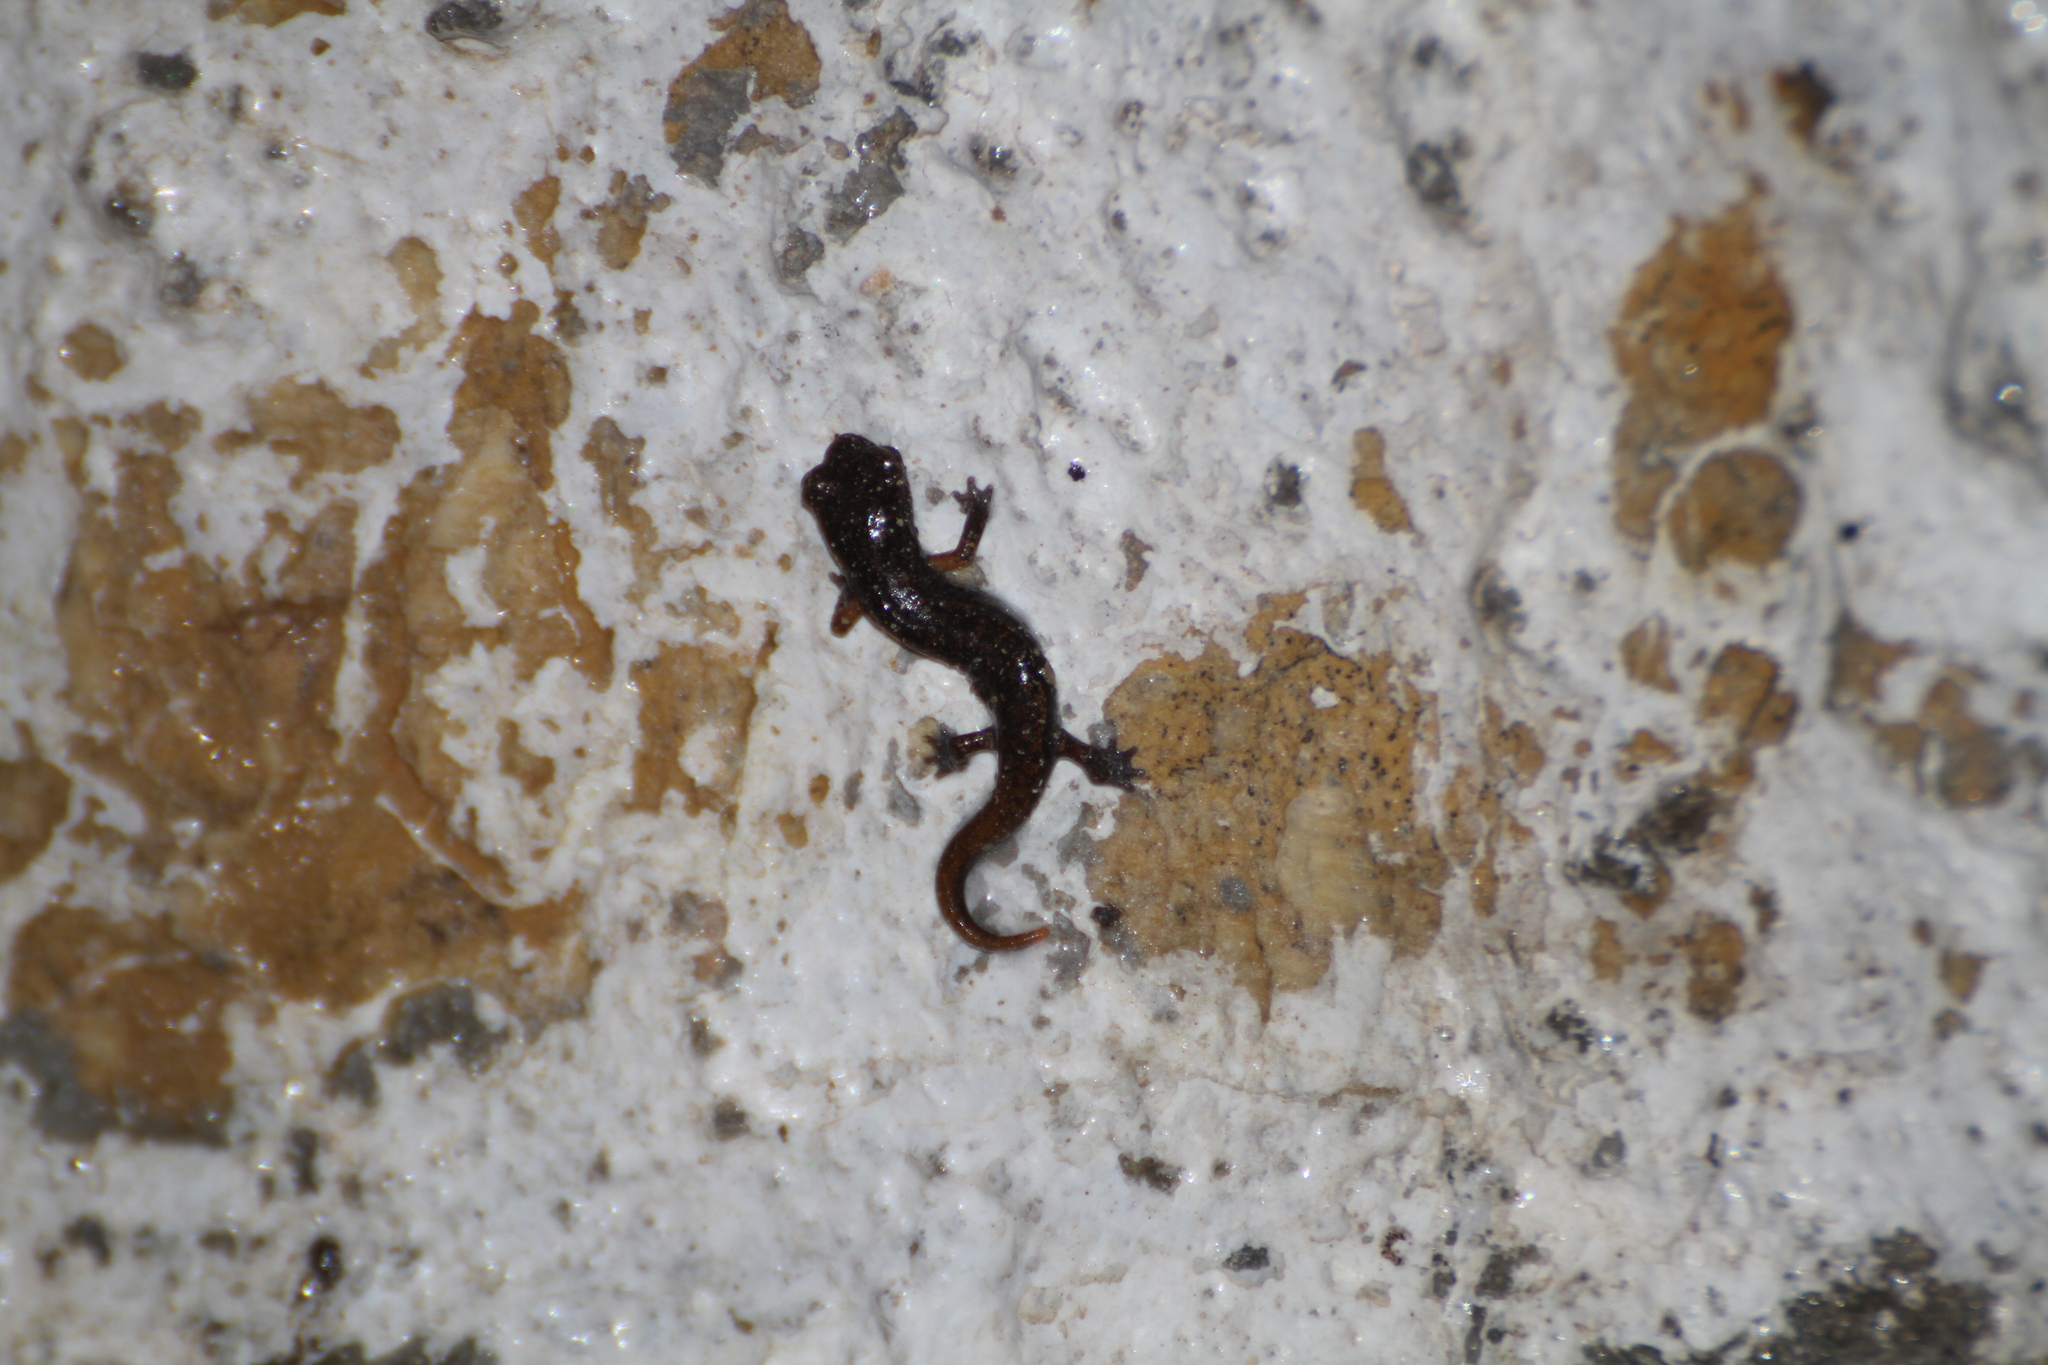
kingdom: Animalia
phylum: Chordata
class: Amphibia
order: Caudata
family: Plethodontidae
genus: Speleomantes
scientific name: Speleomantes strinatii
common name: French cave salamander
